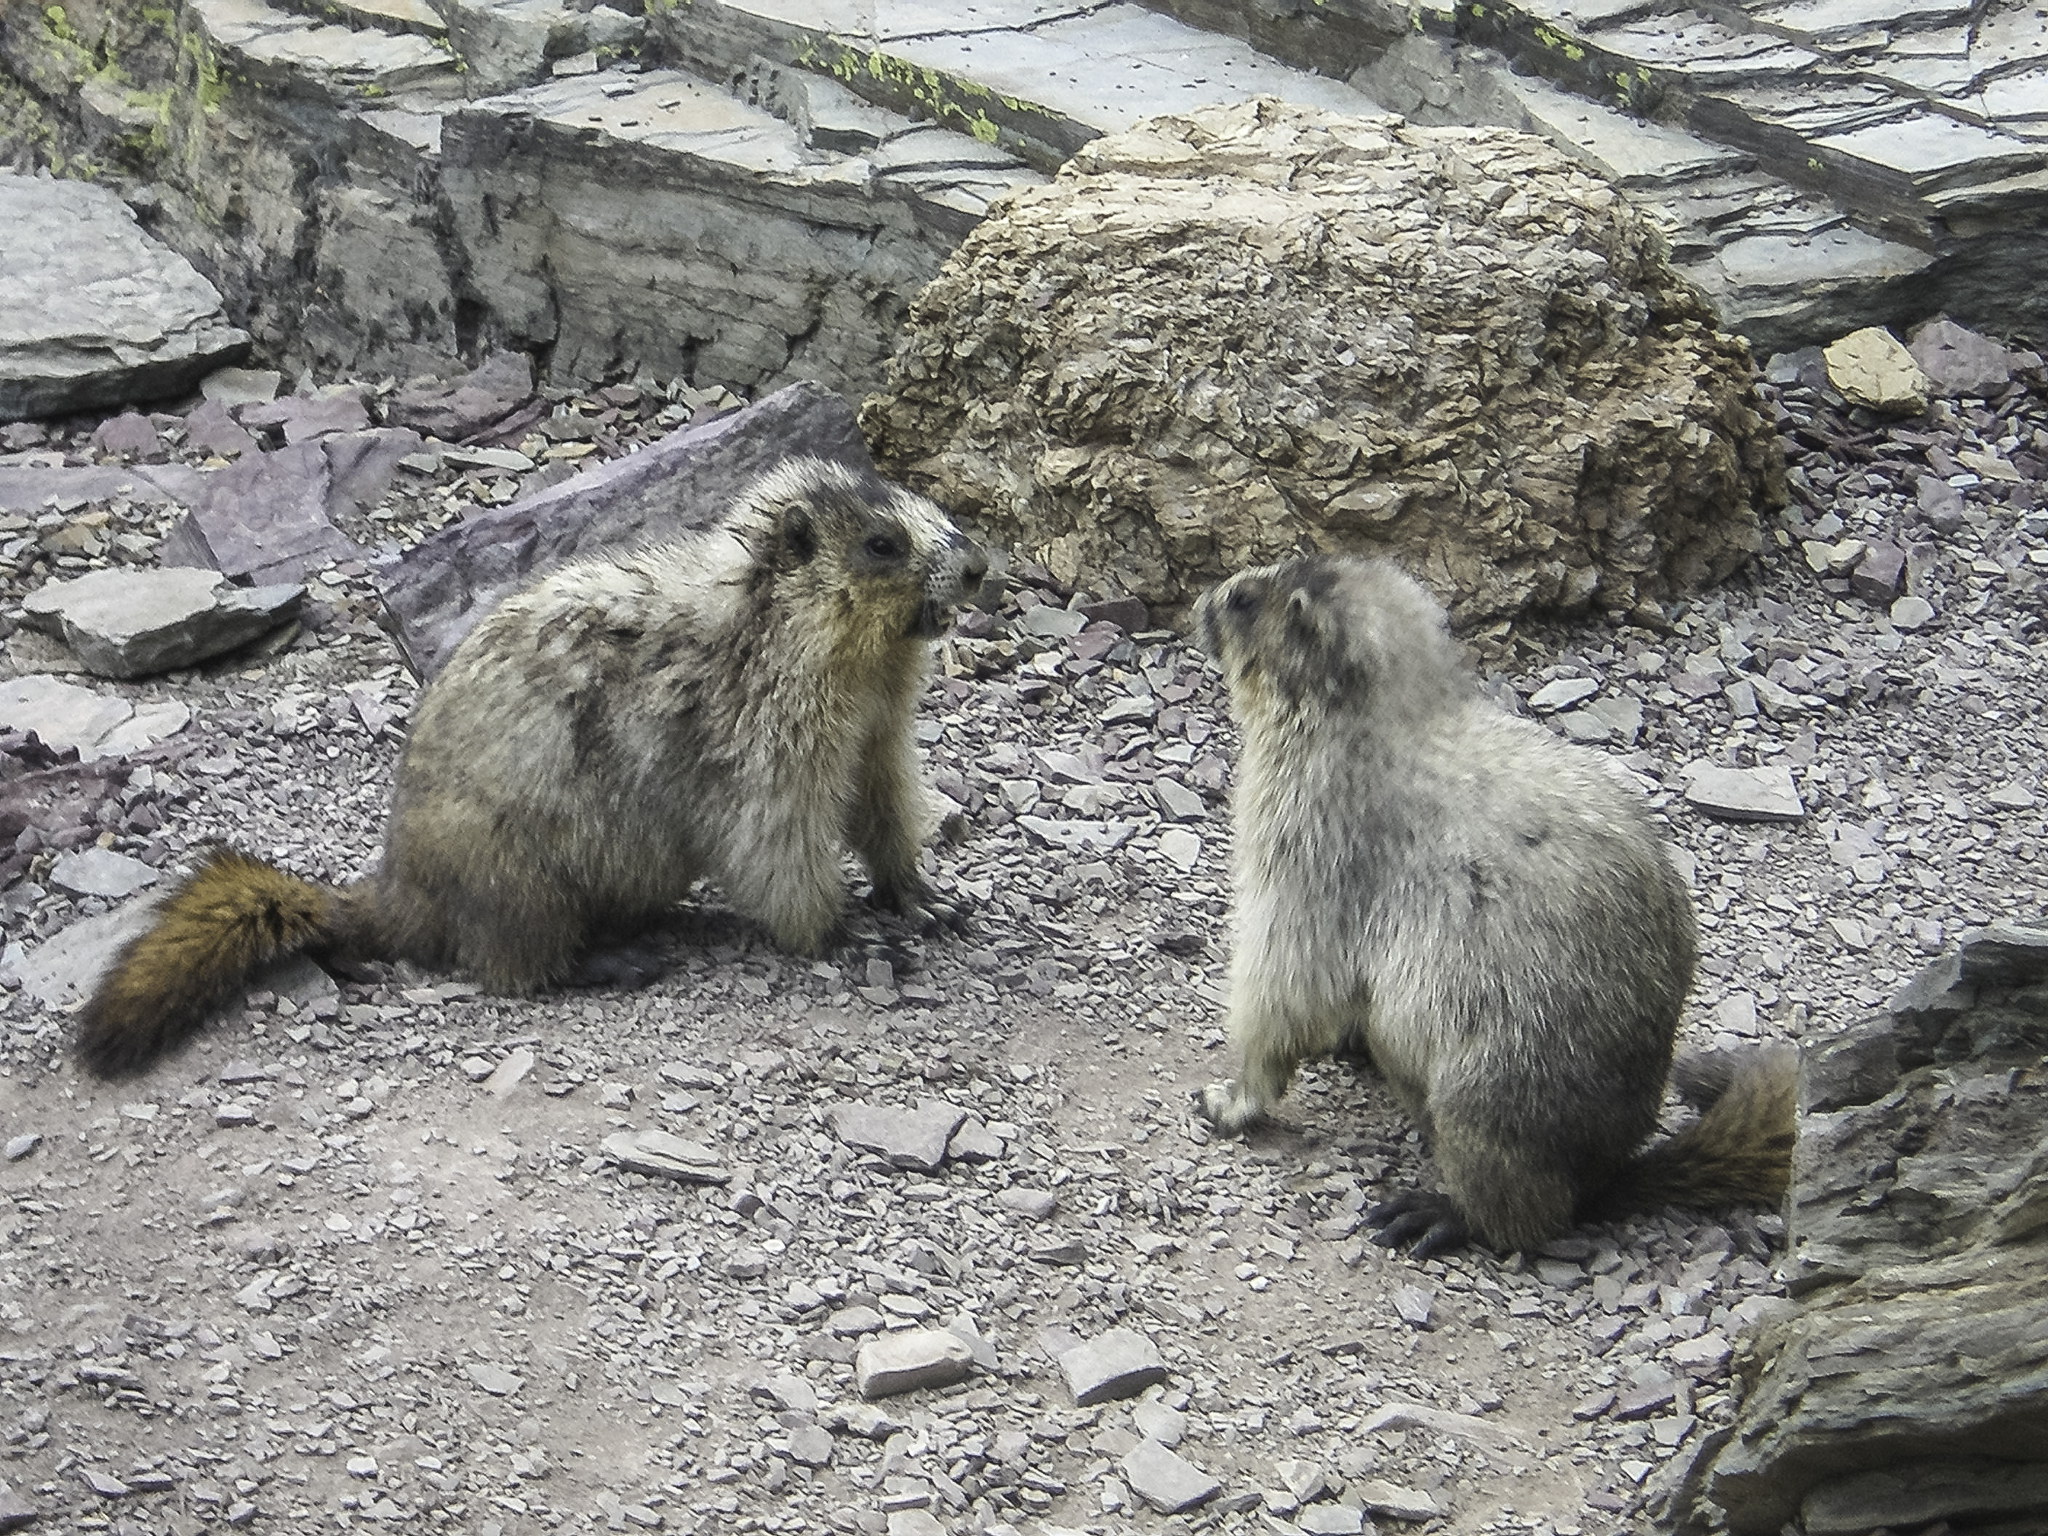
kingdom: Animalia
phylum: Chordata
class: Mammalia
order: Rodentia
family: Sciuridae
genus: Marmota
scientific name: Marmota caligata
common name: Hoary marmot
